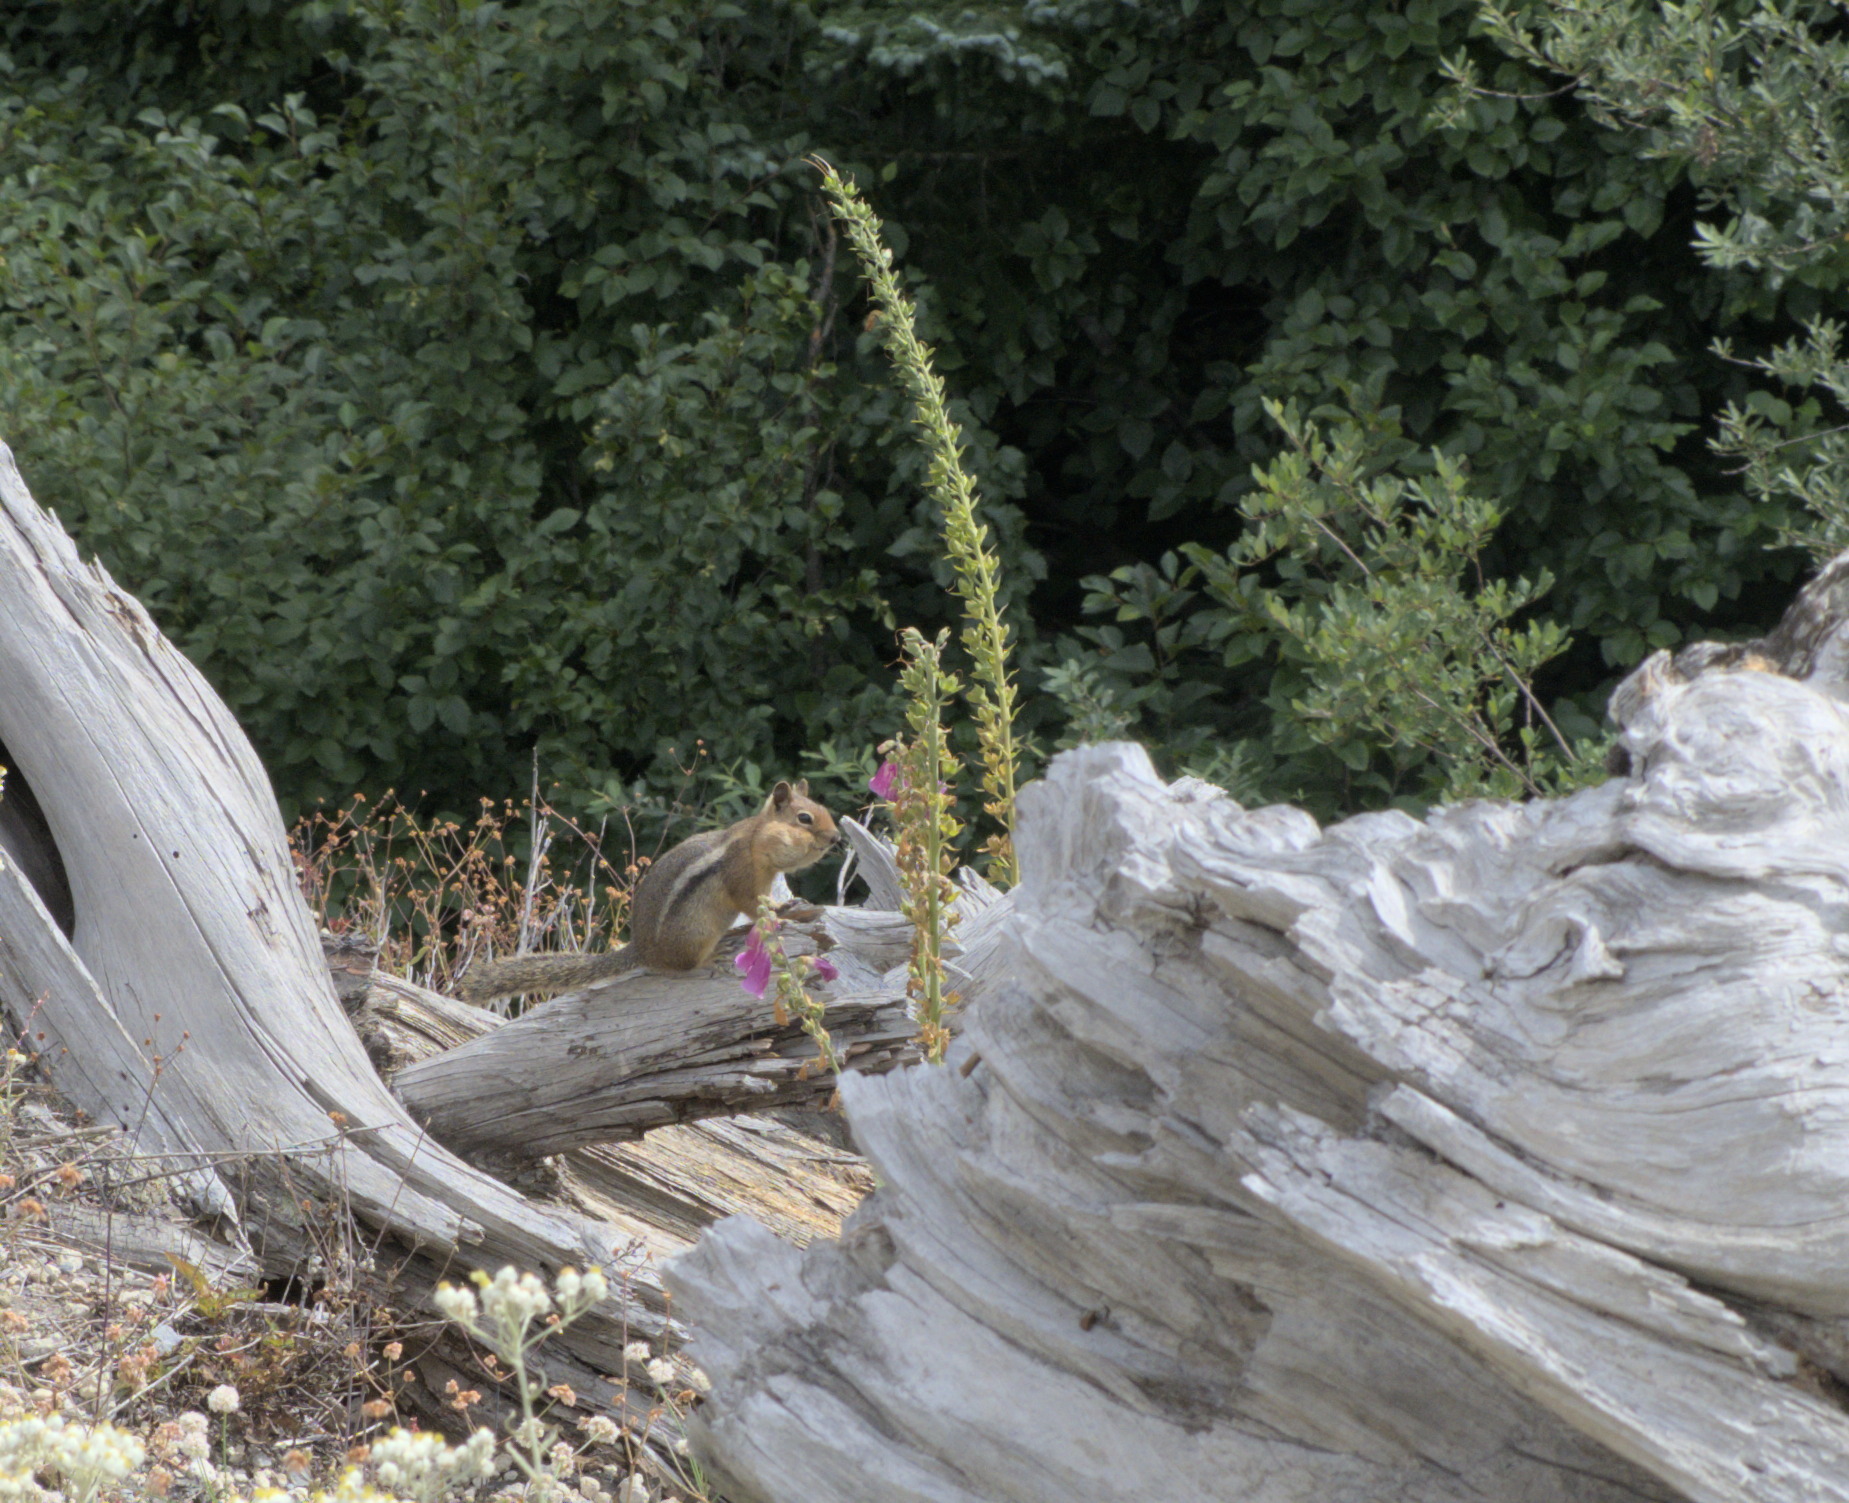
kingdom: Animalia
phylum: Chordata
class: Mammalia
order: Rodentia
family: Sciuridae
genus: Callospermophilus
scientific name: Callospermophilus saturatus
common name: Cascade golden-mantled ground squirrel
